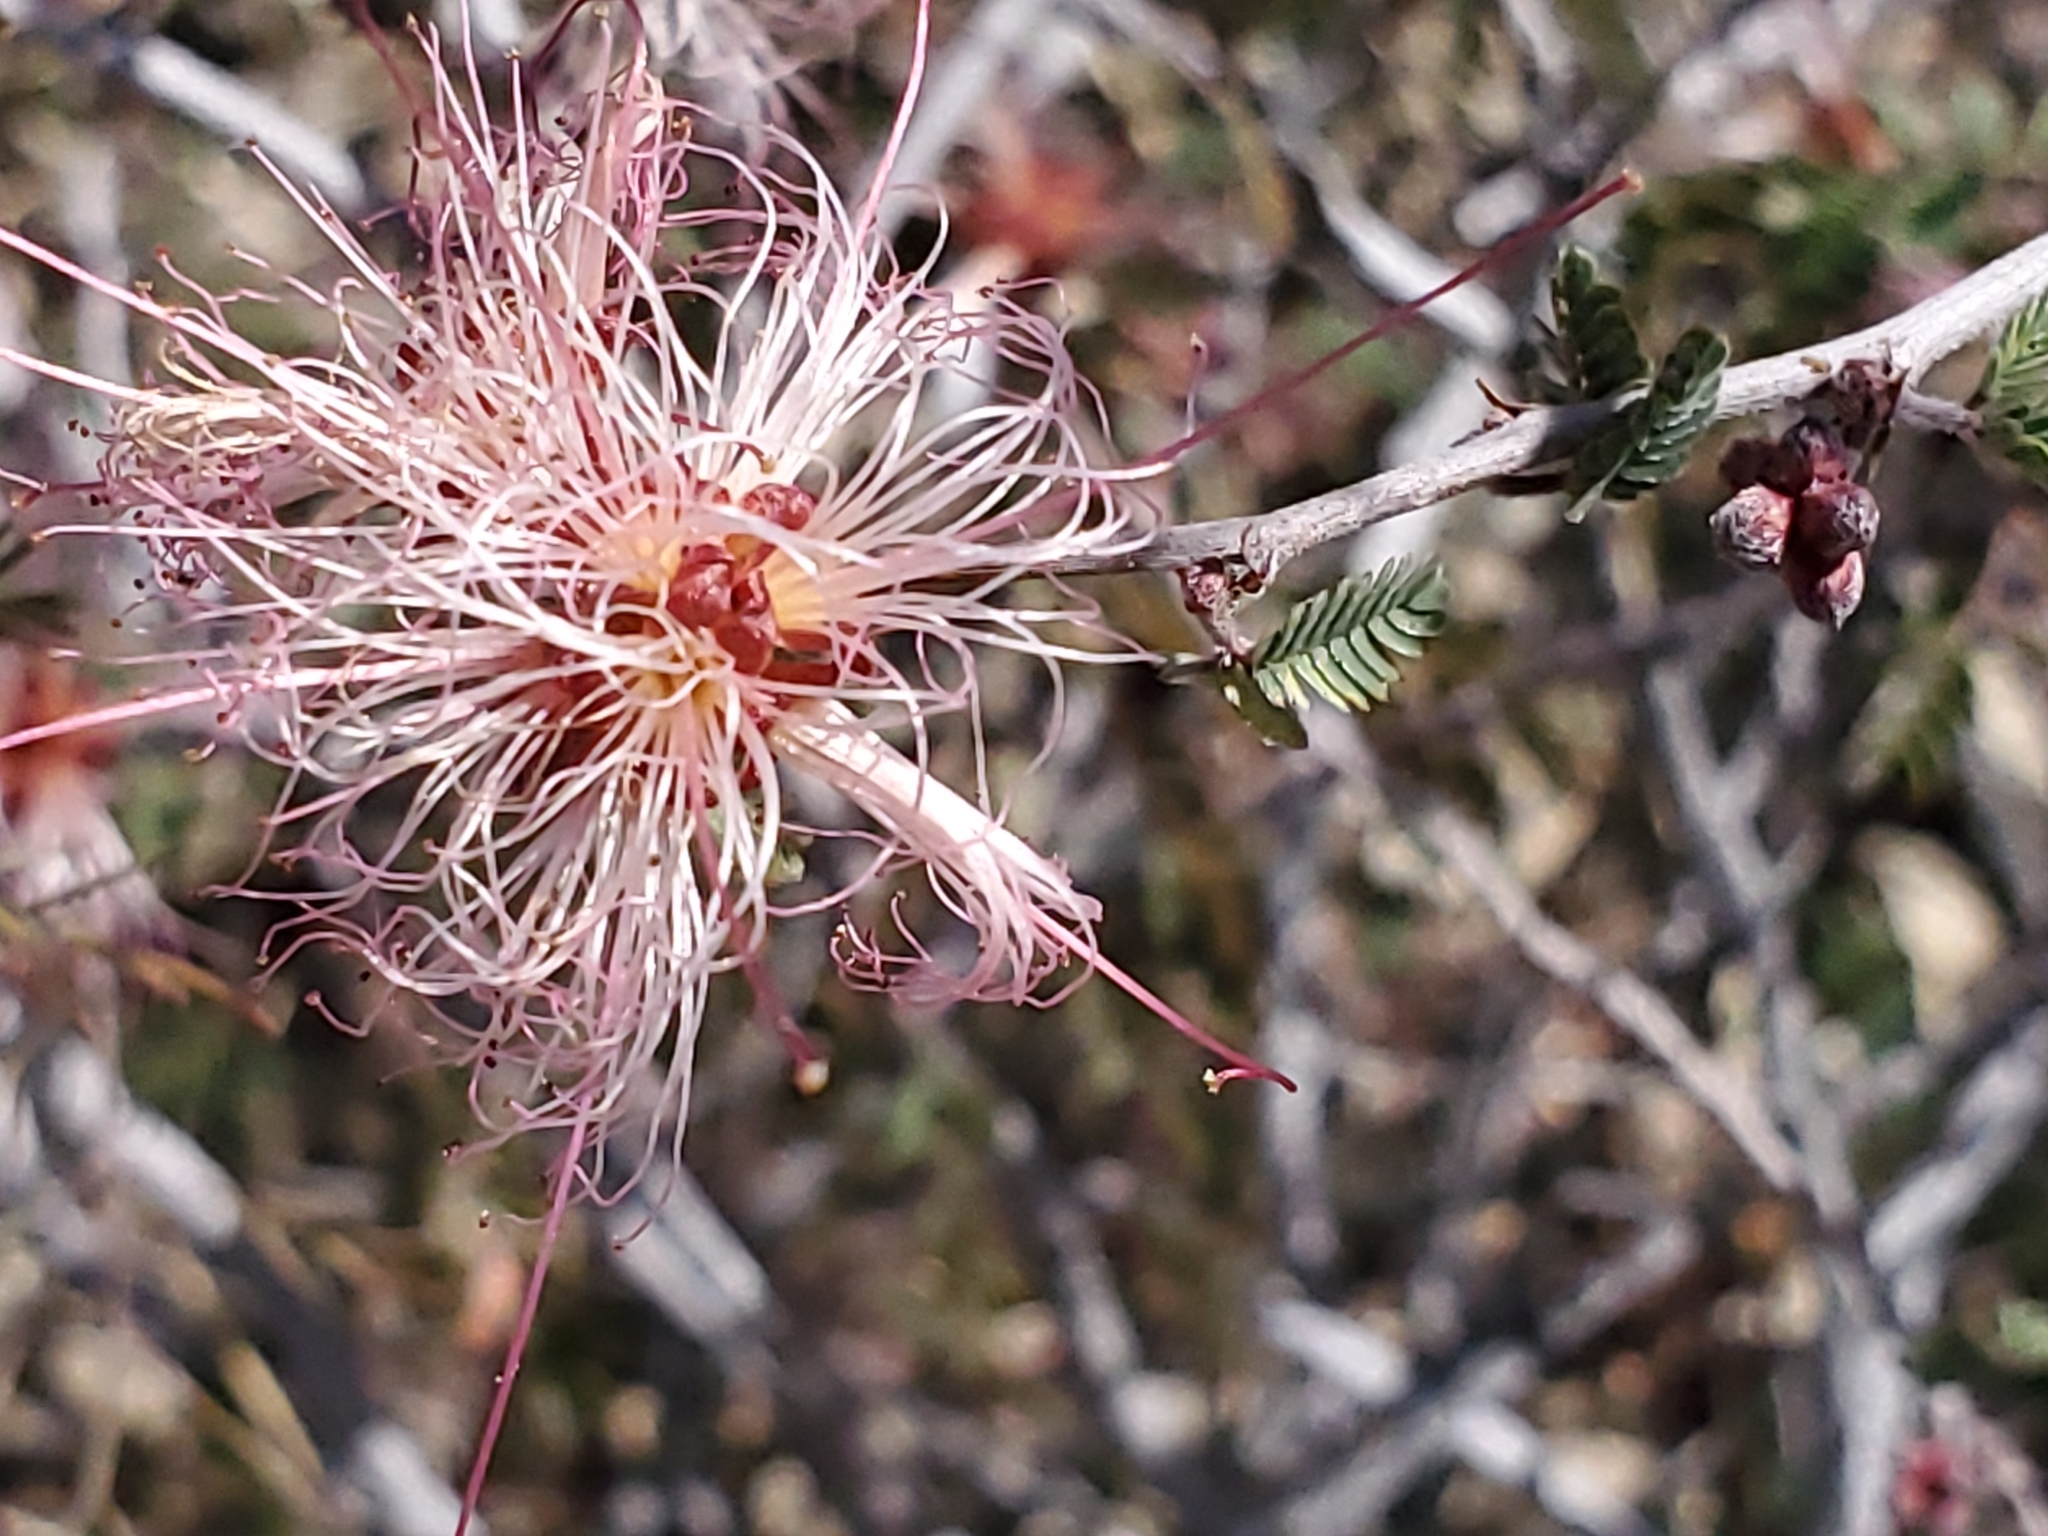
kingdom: Plantae
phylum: Tracheophyta
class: Magnoliopsida
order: Fabales
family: Fabaceae
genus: Calliandra
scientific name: Calliandra eriophylla
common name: Fairy-duster
